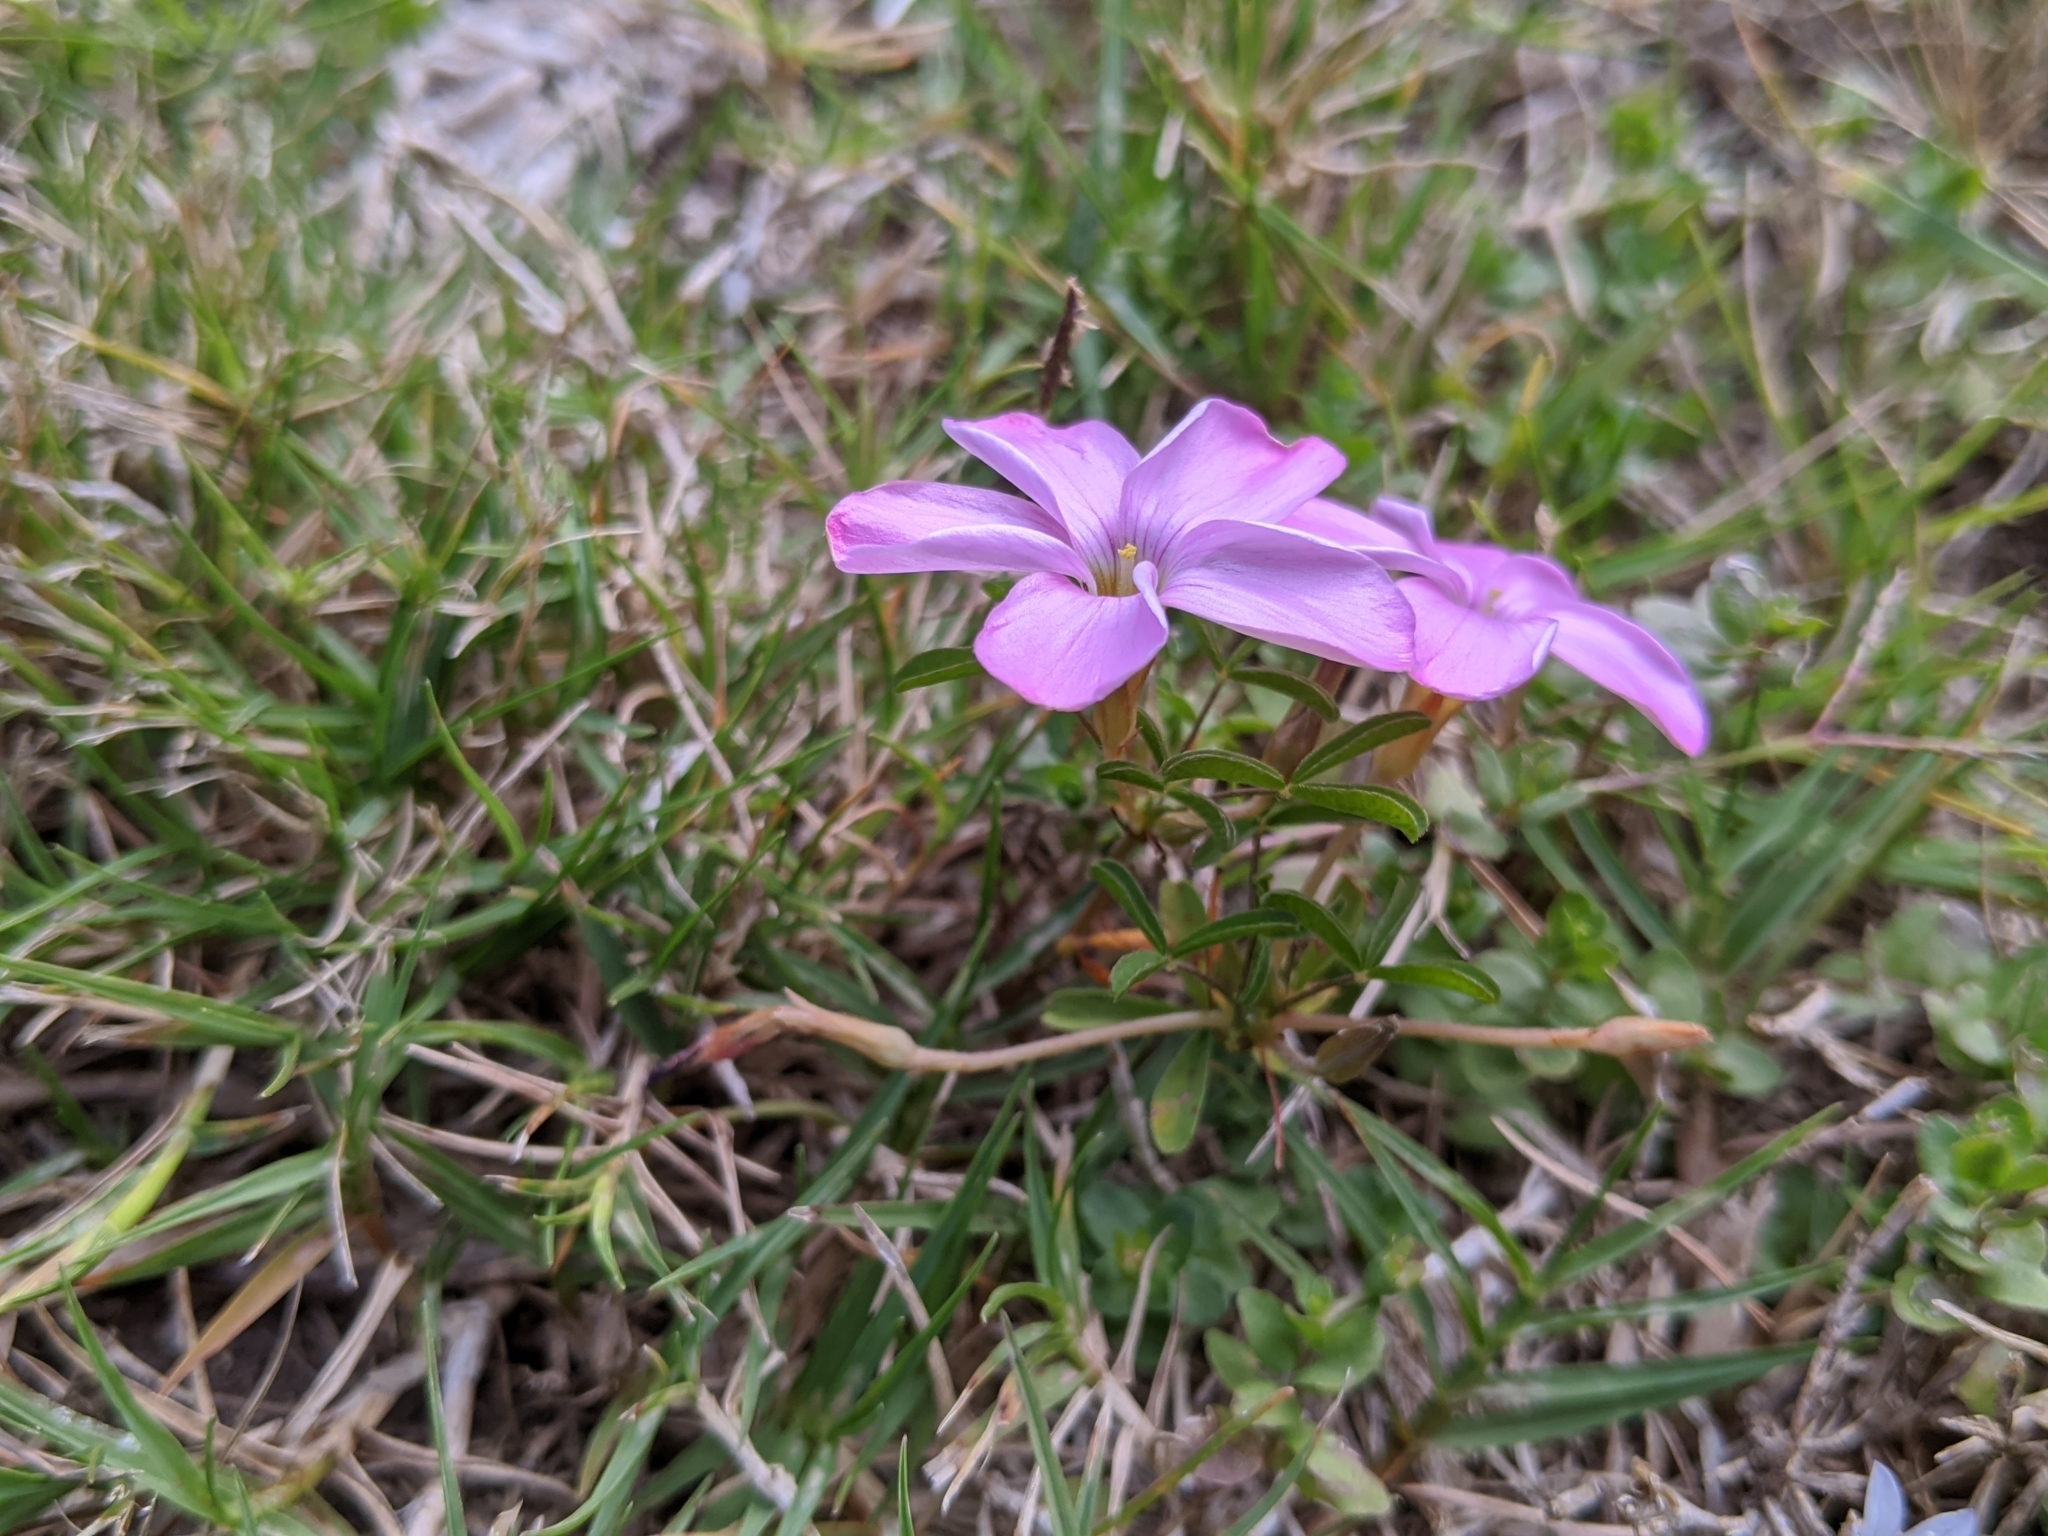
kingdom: Plantae
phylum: Tracheophyta
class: Magnoliopsida
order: Oxalidales
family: Oxalidaceae
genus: Oxalis
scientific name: Oxalis ciliaris
